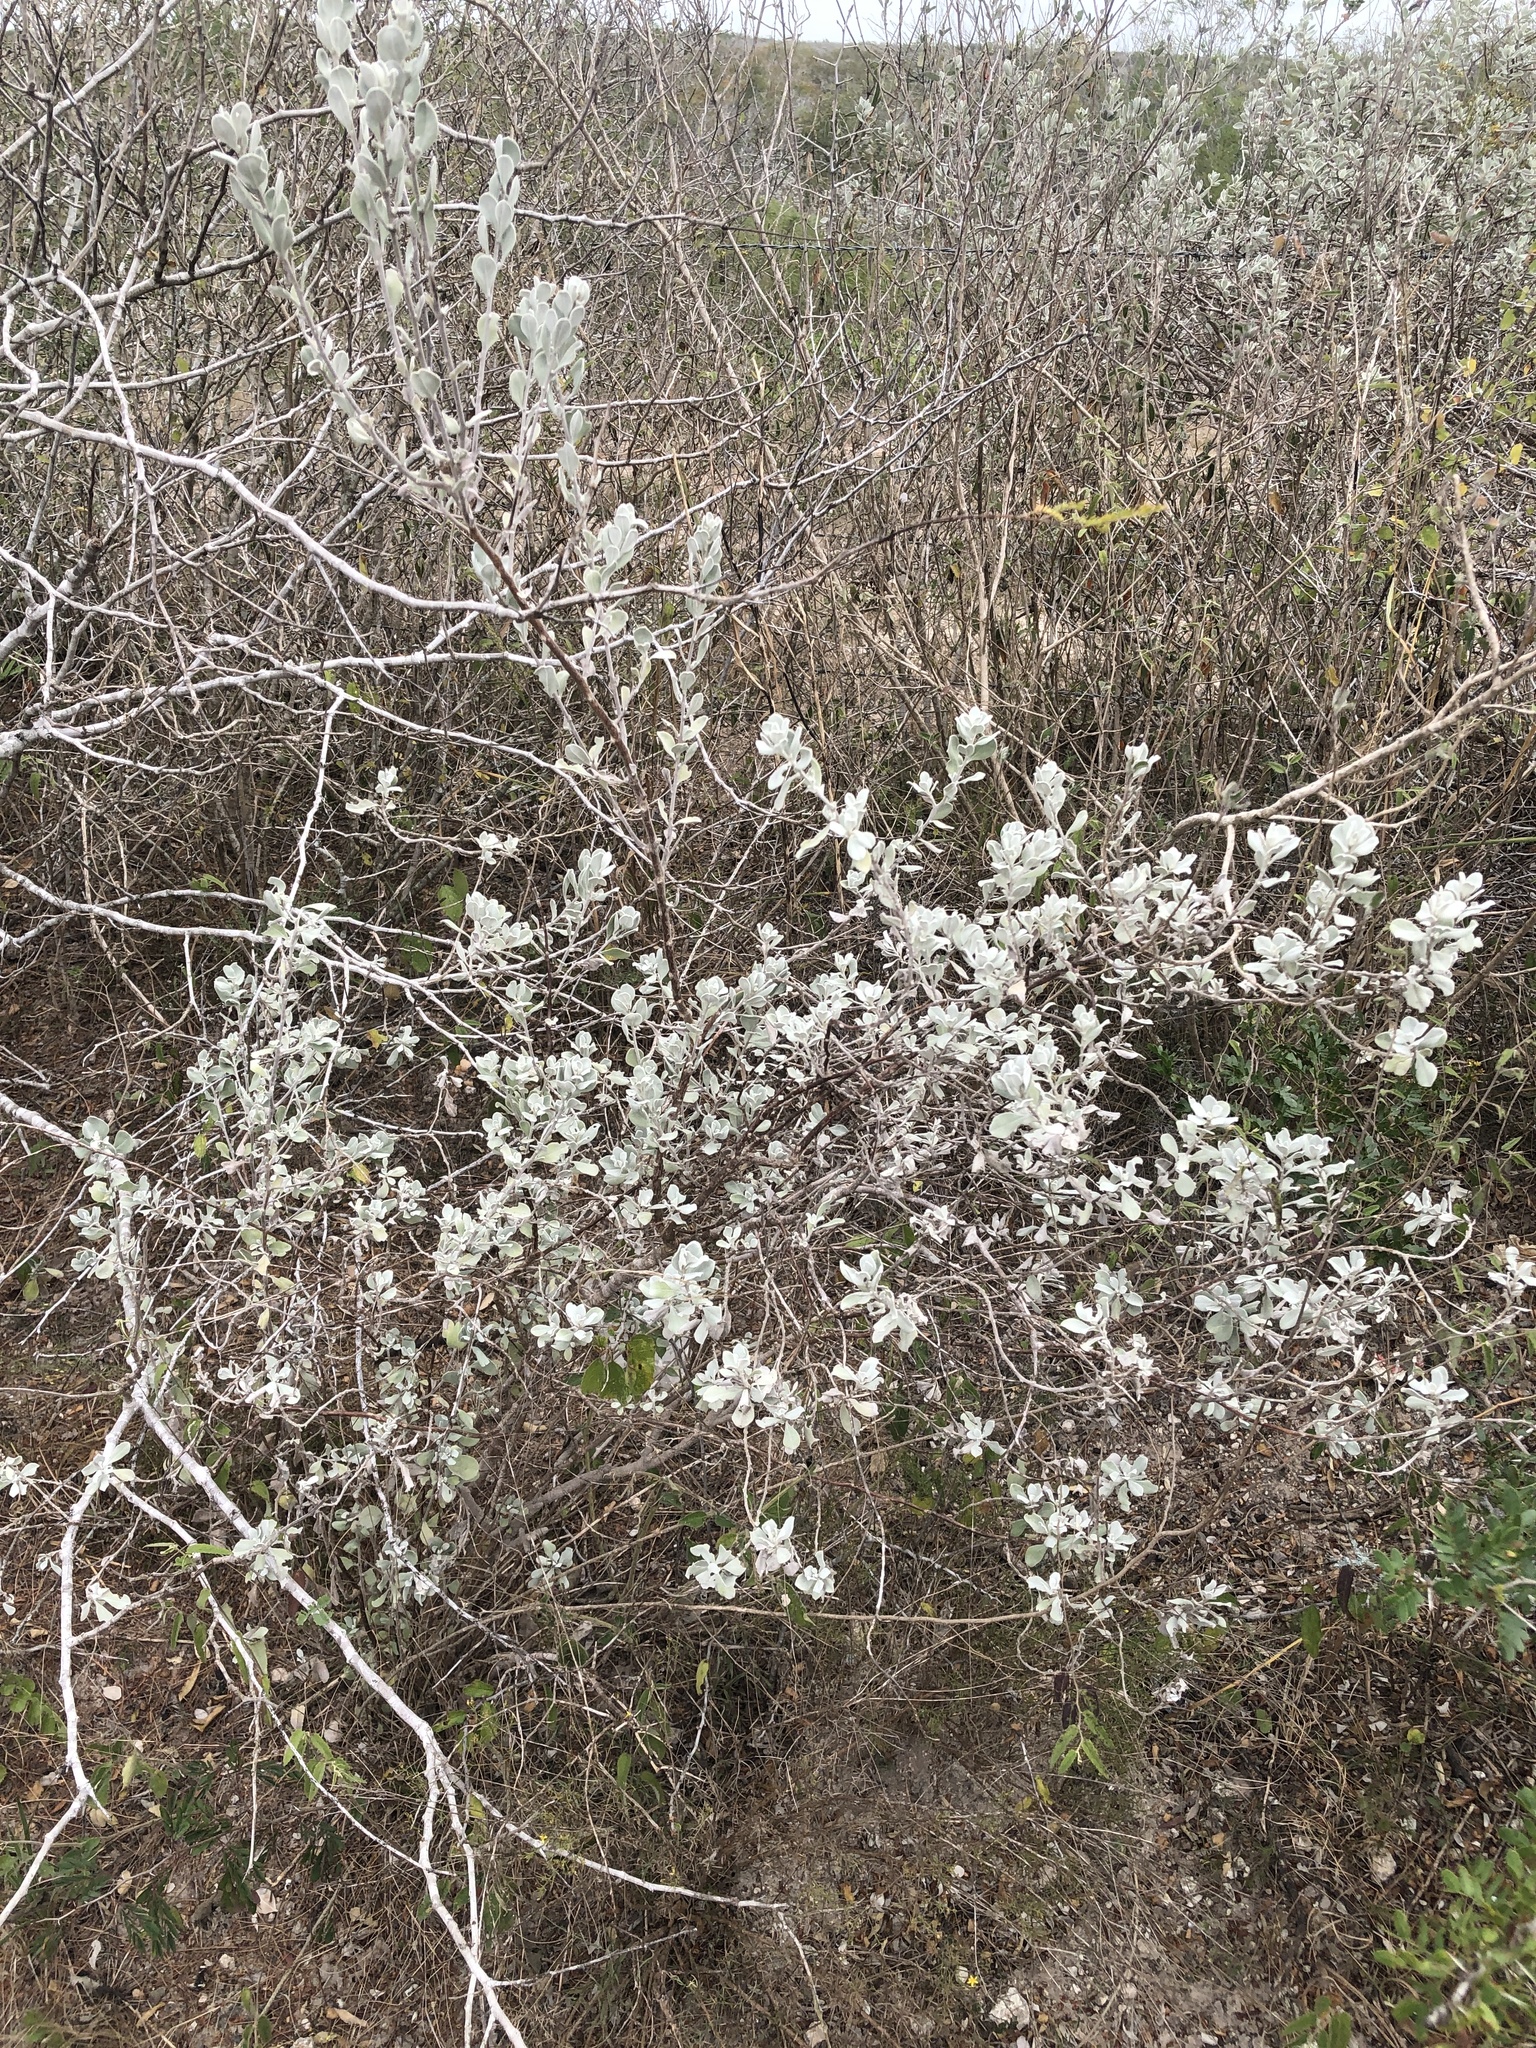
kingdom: Plantae
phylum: Tracheophyta
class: Magnoliopsida
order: Lamiales
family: Scrophulariaceae
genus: Leucophyllum
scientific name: Leucophyllum frutescens
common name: Texas silverleaf
